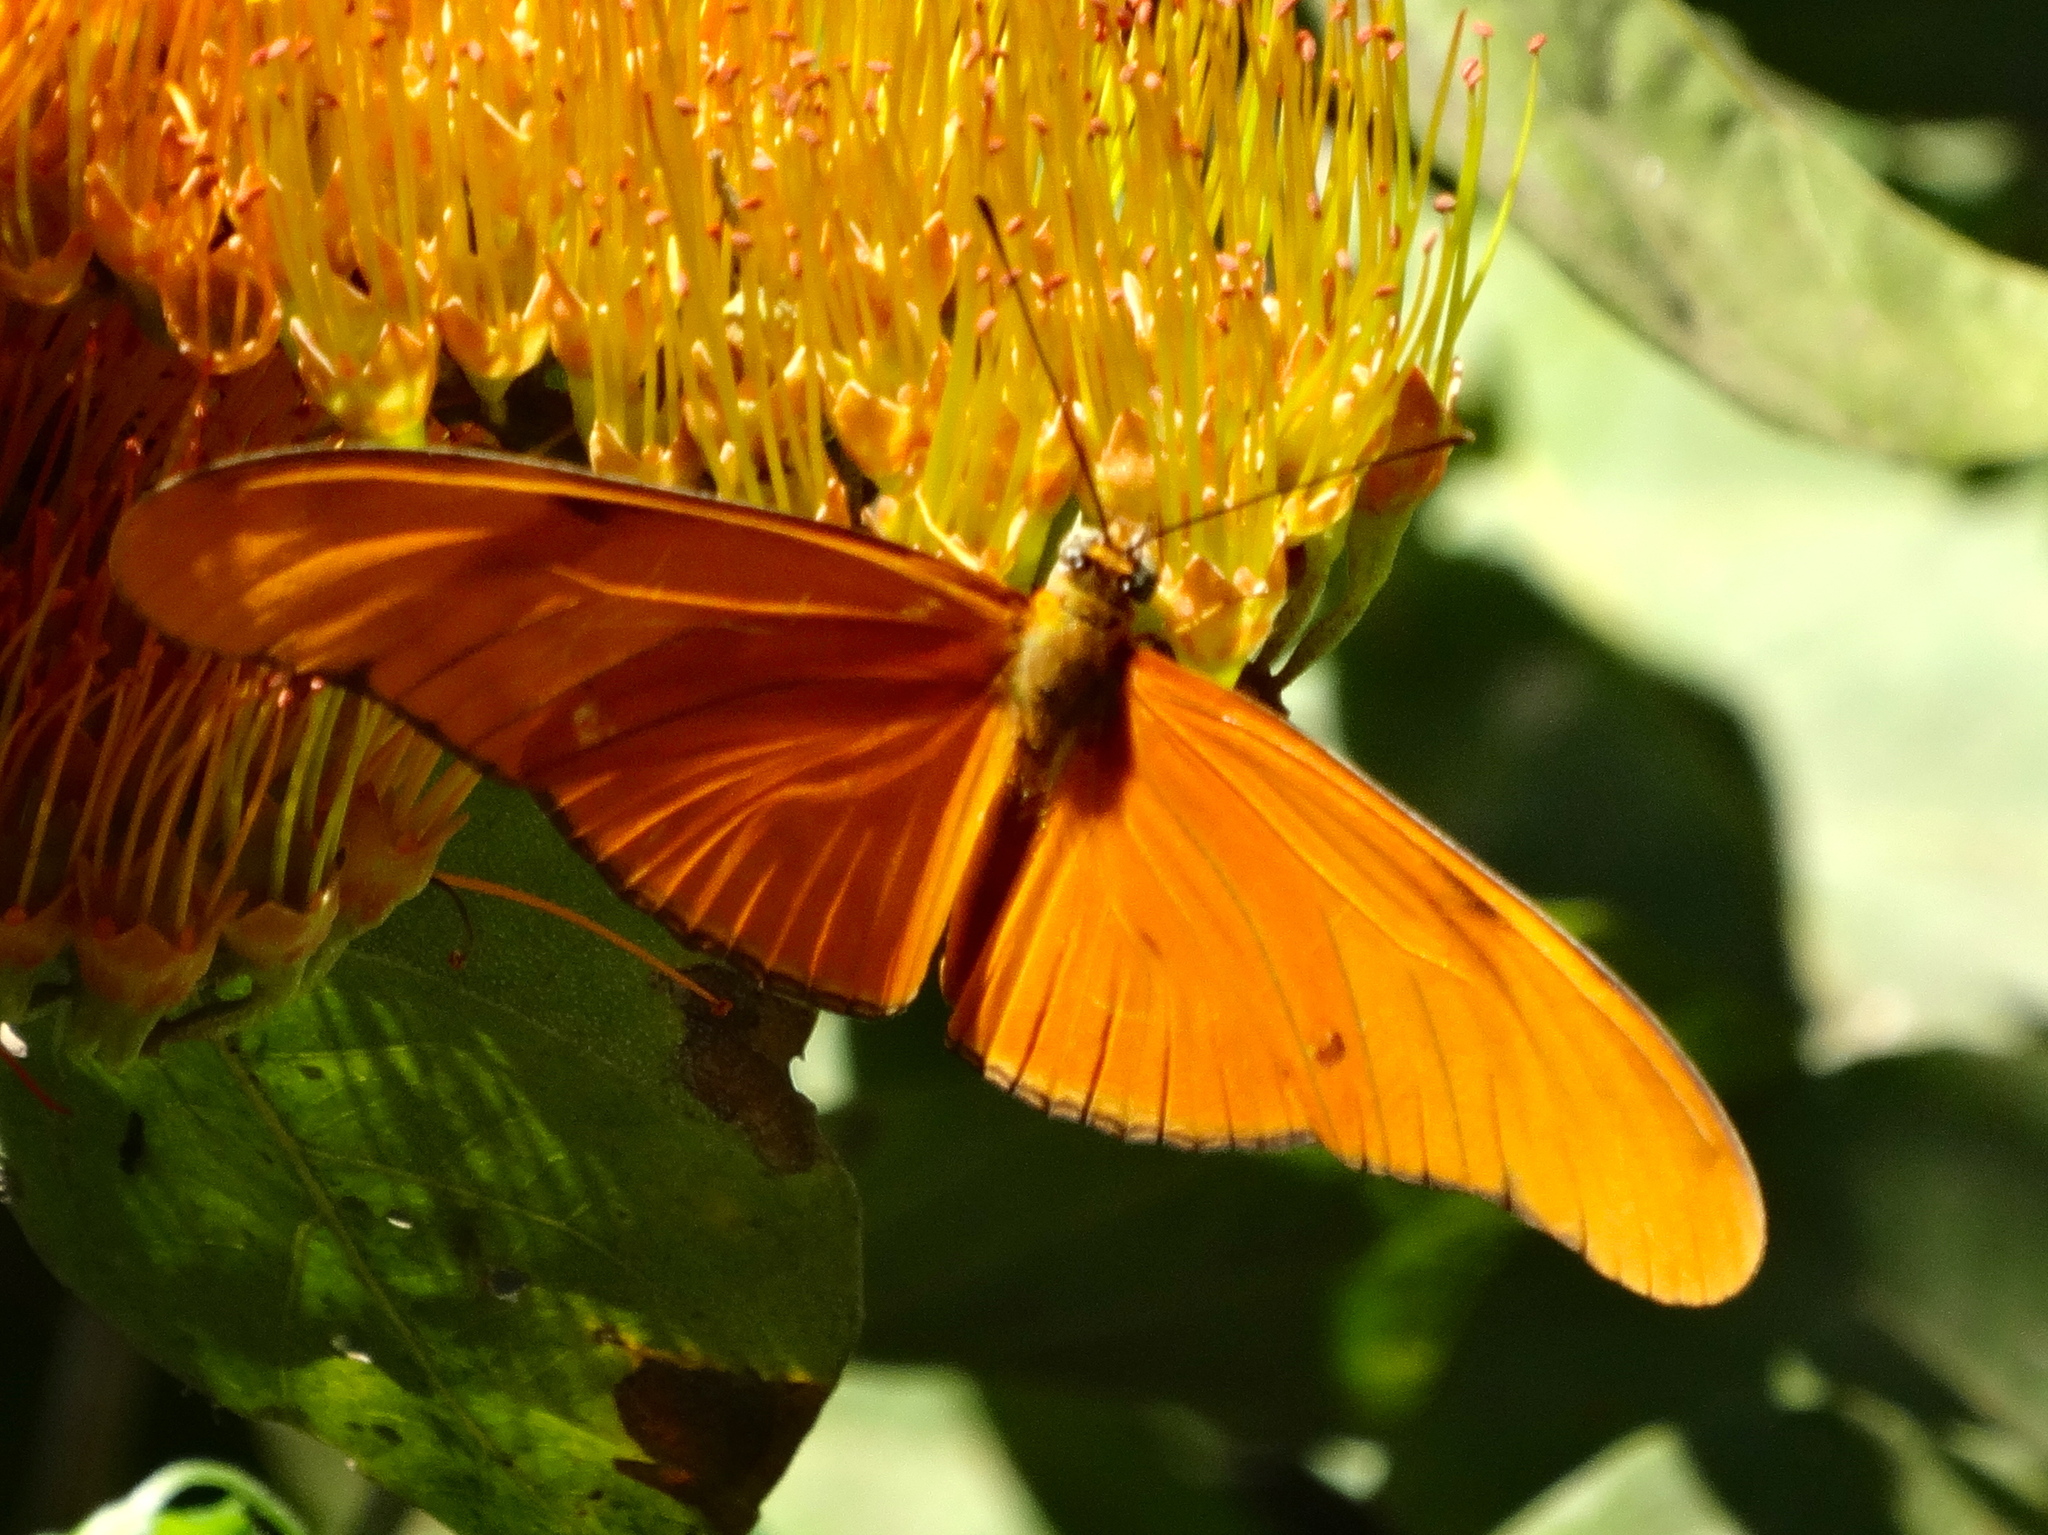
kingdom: Animalia
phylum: Arthropoda
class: Insecta
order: Lepidoptera
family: Nymphalidae
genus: Dryas
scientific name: Dryas iulia
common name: Flambeau
